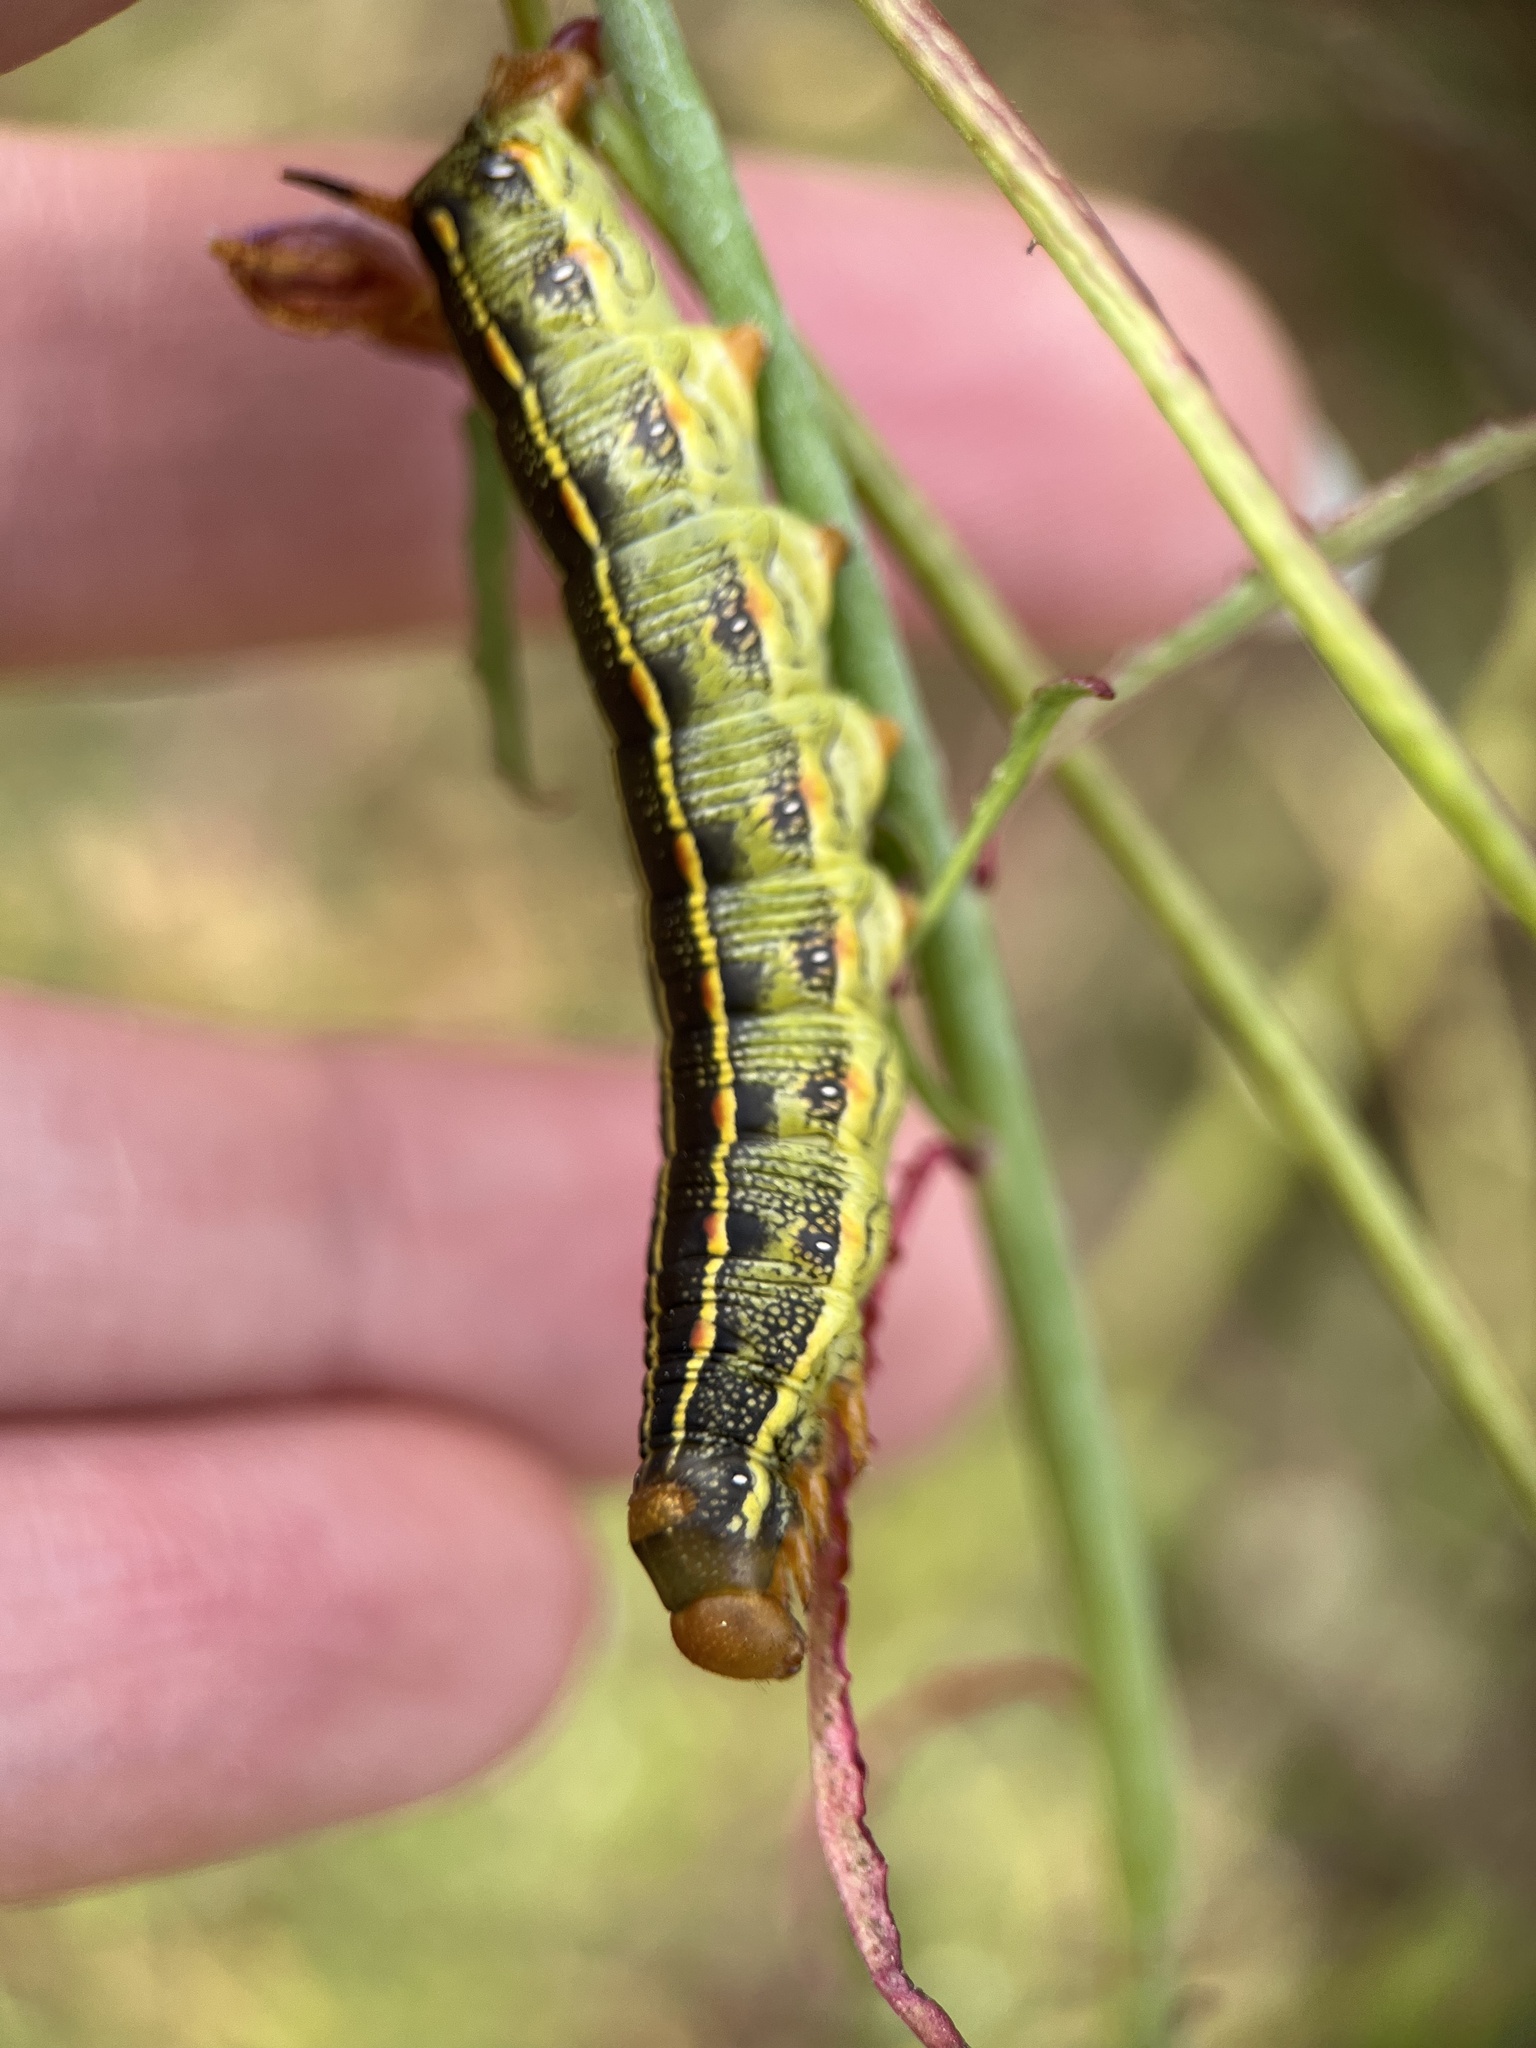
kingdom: Animalia
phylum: Arthropoda
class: Insecta
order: Lepidoptera
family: Sphingidae
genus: Hyles
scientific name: Hyles lineata
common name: White-lined sphinx
